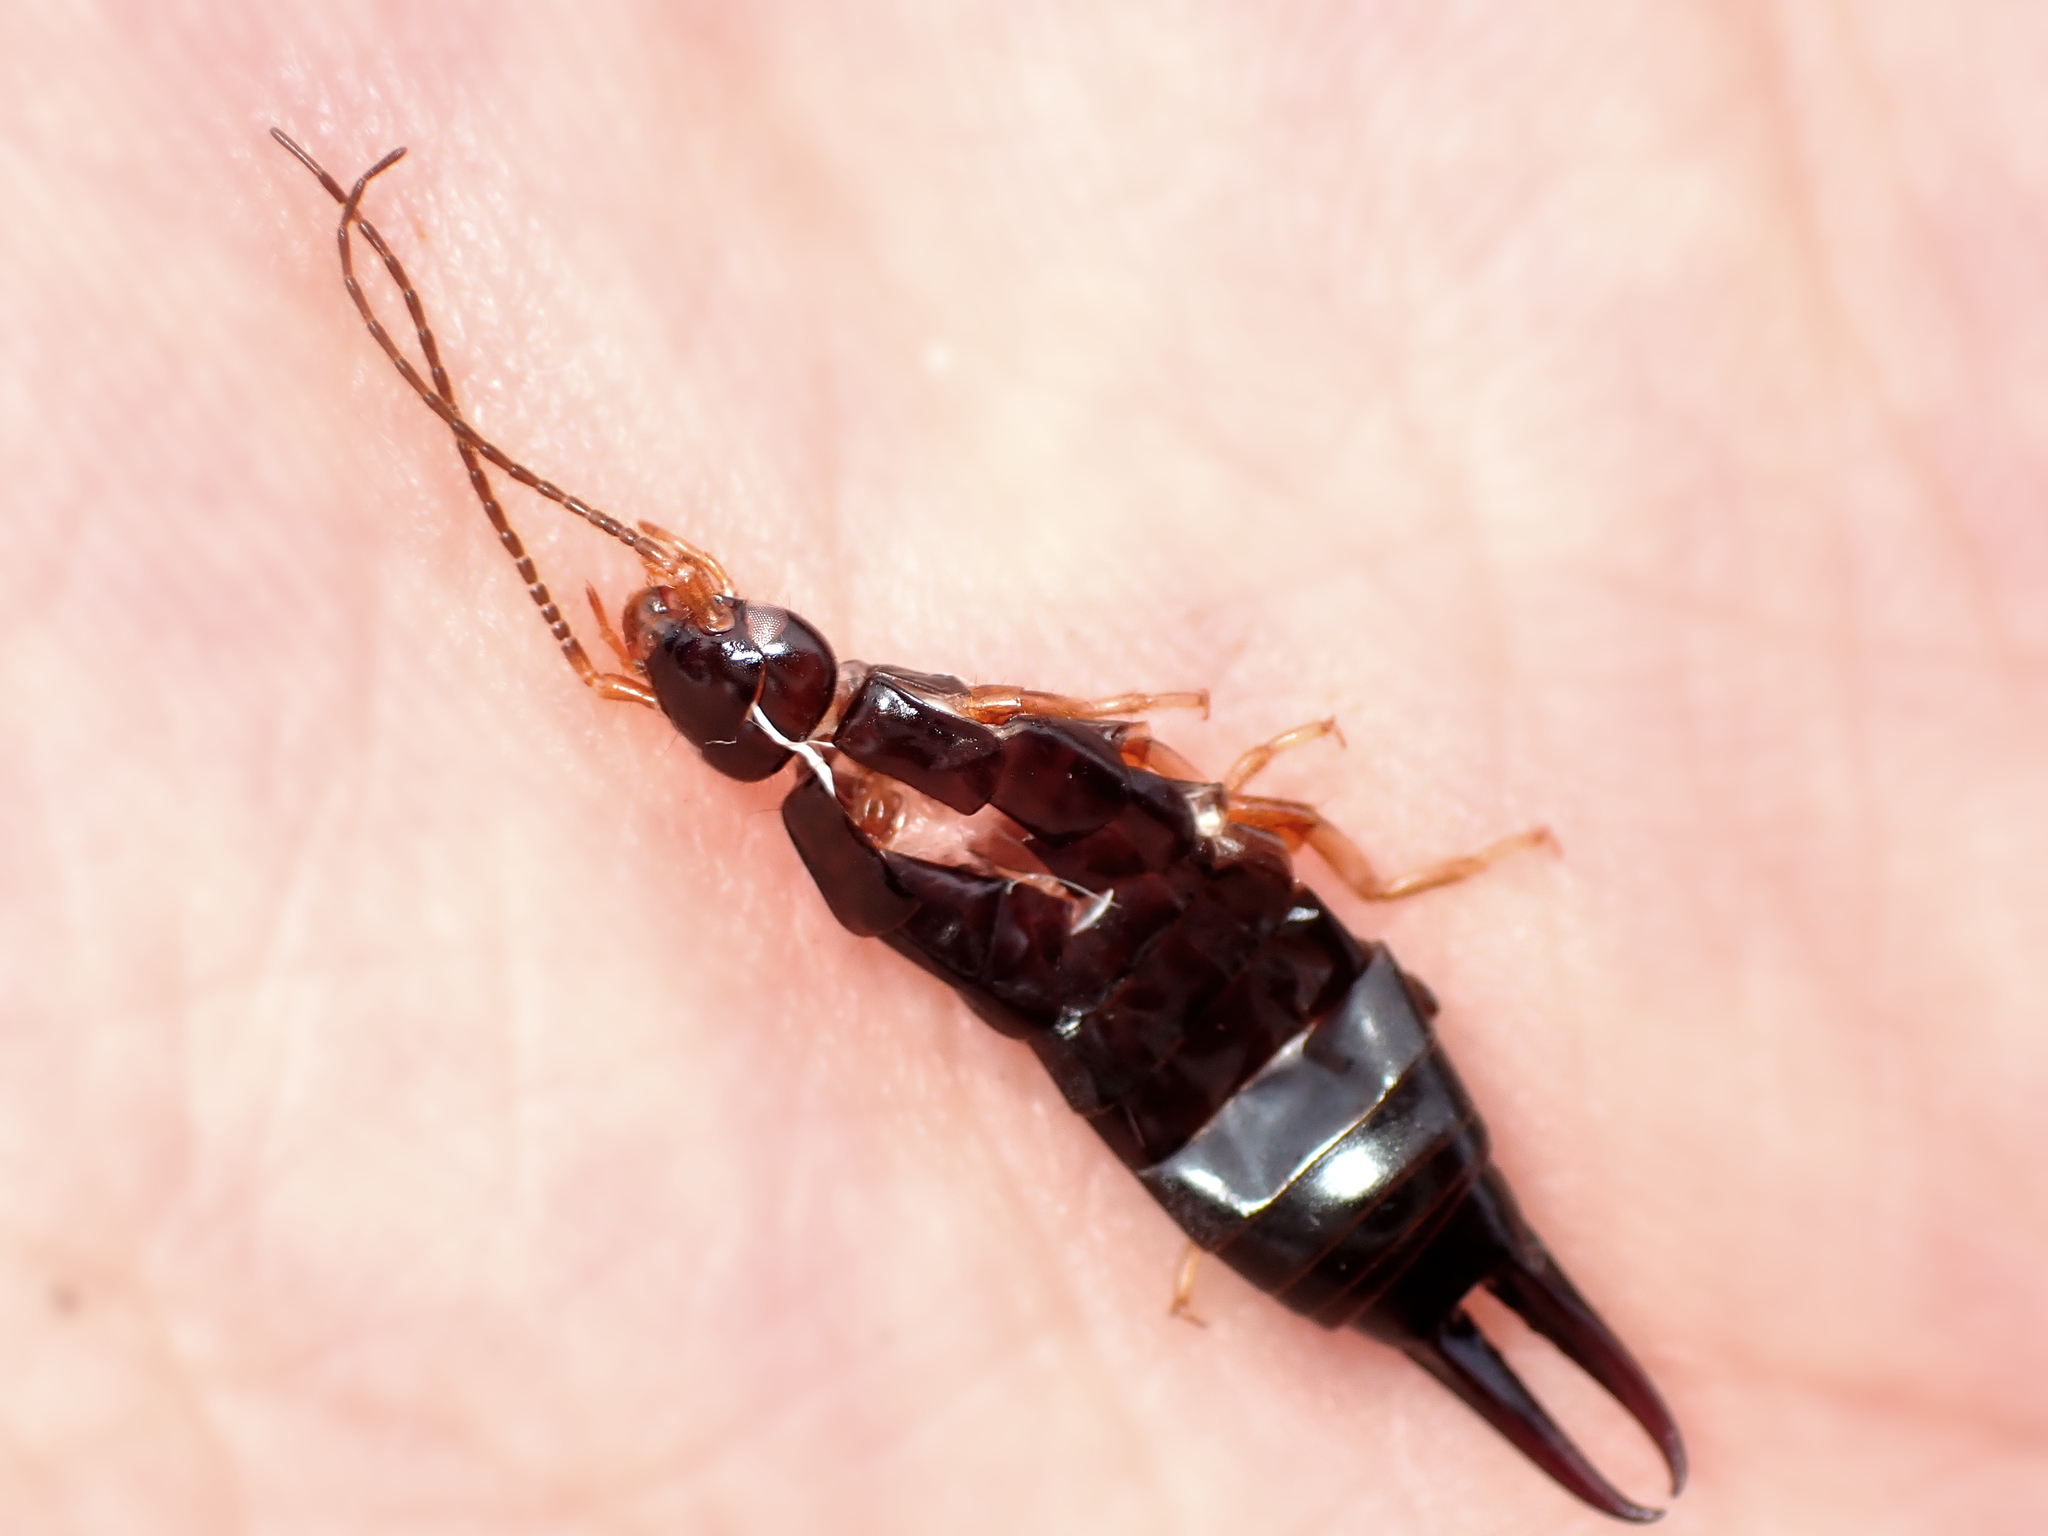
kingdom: Animalia
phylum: Arthropoda
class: Insecta
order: Dermaptera
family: Anisolabididae
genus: Anisolabis
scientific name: Anisolabis littorea
